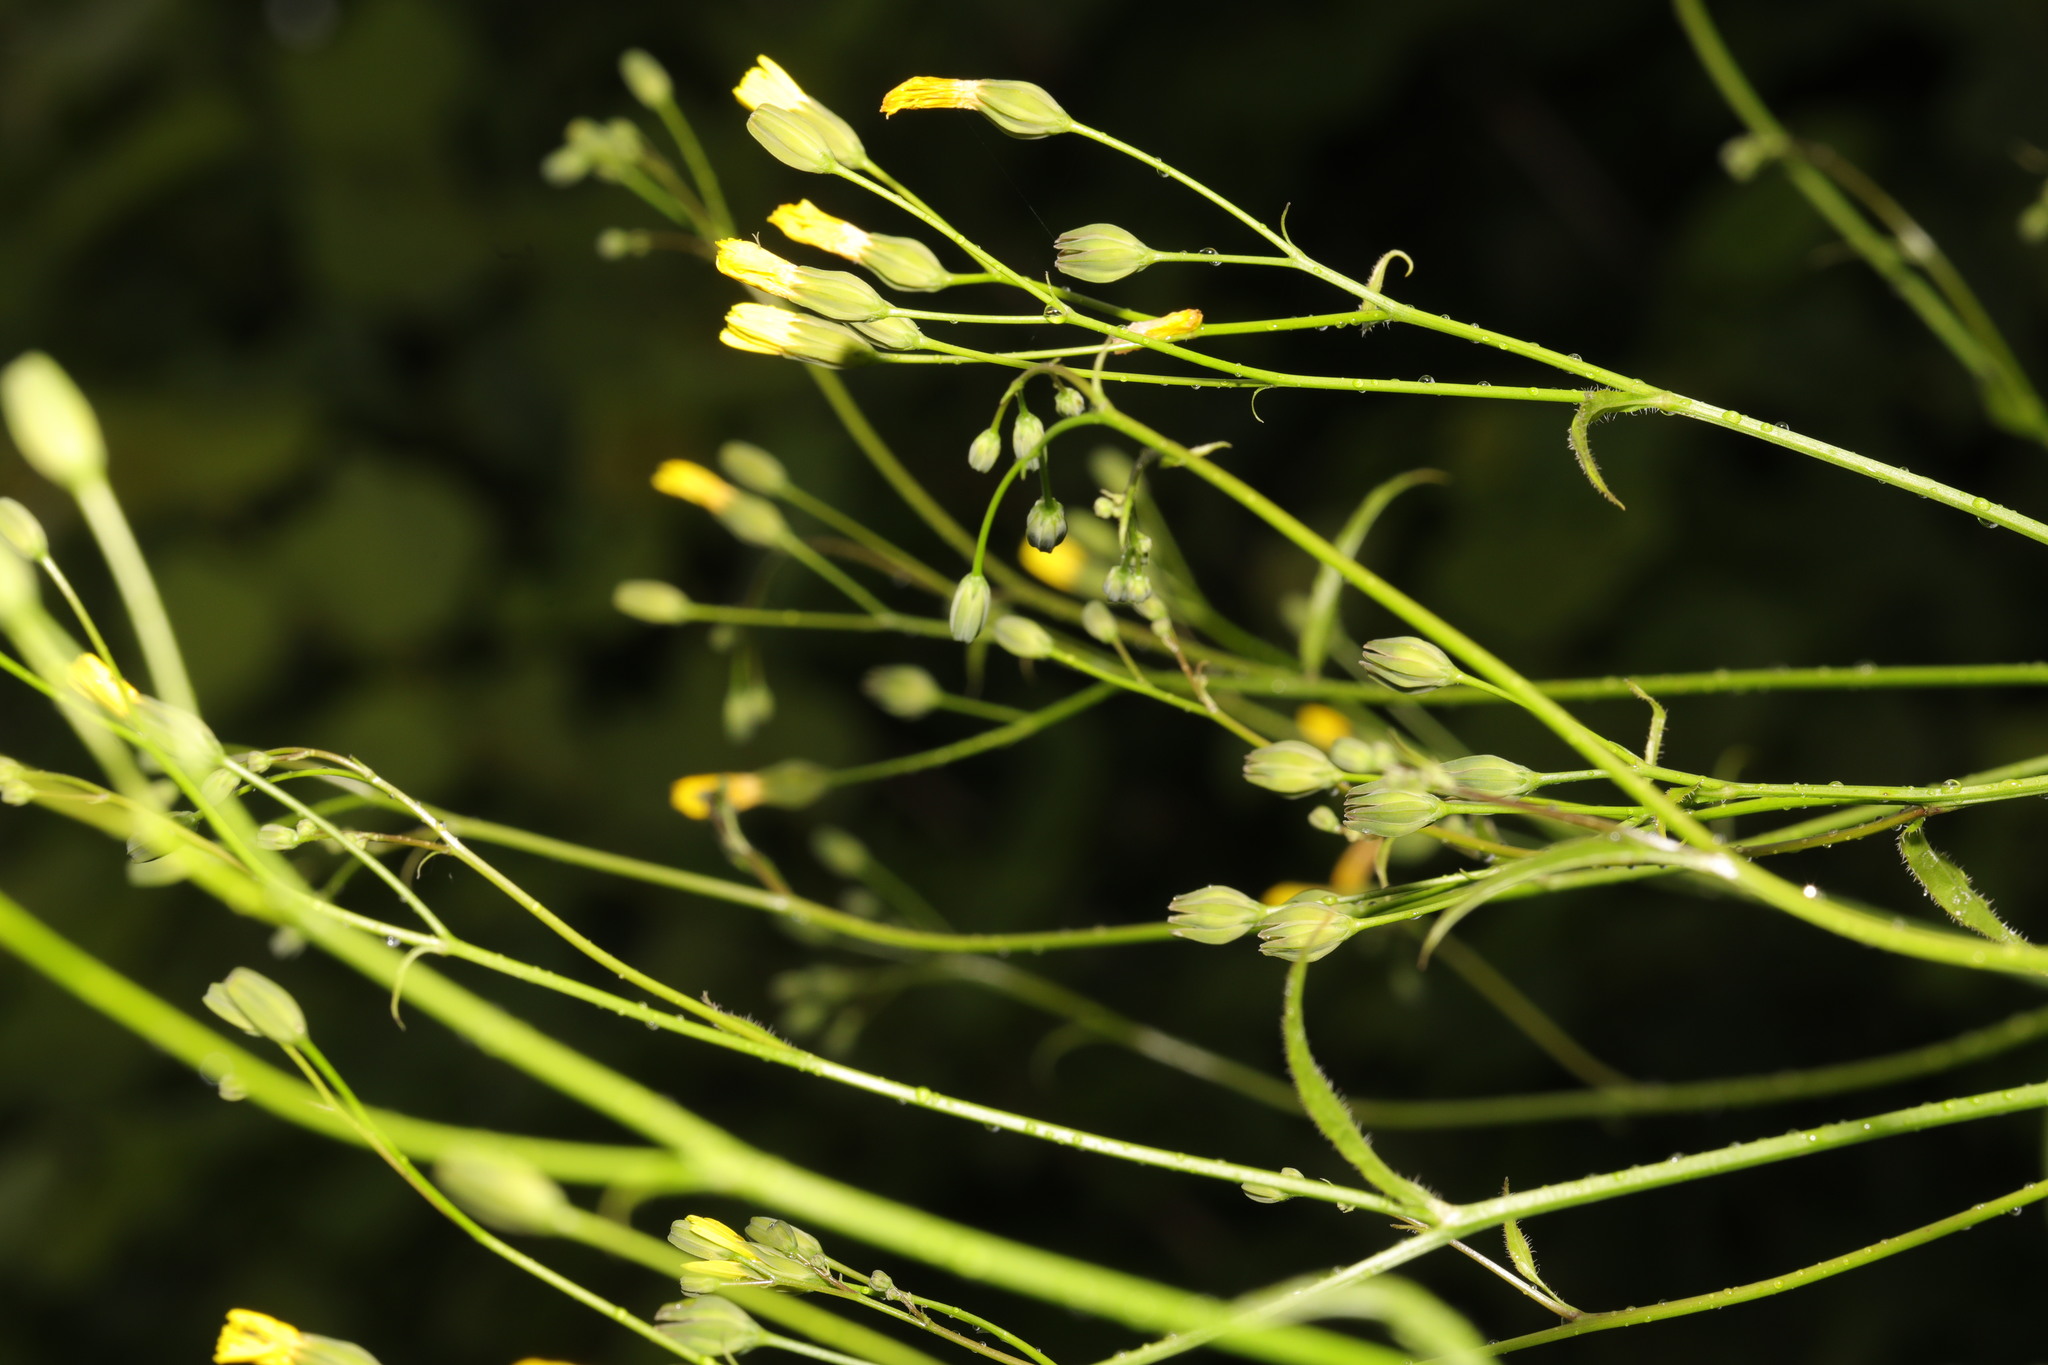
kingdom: Plantae
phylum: Tracheophyta
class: Magnoliopsida
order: Asterales
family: Asteraceae
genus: Lapsana
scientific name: Lapsana communis
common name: Nipplewort
